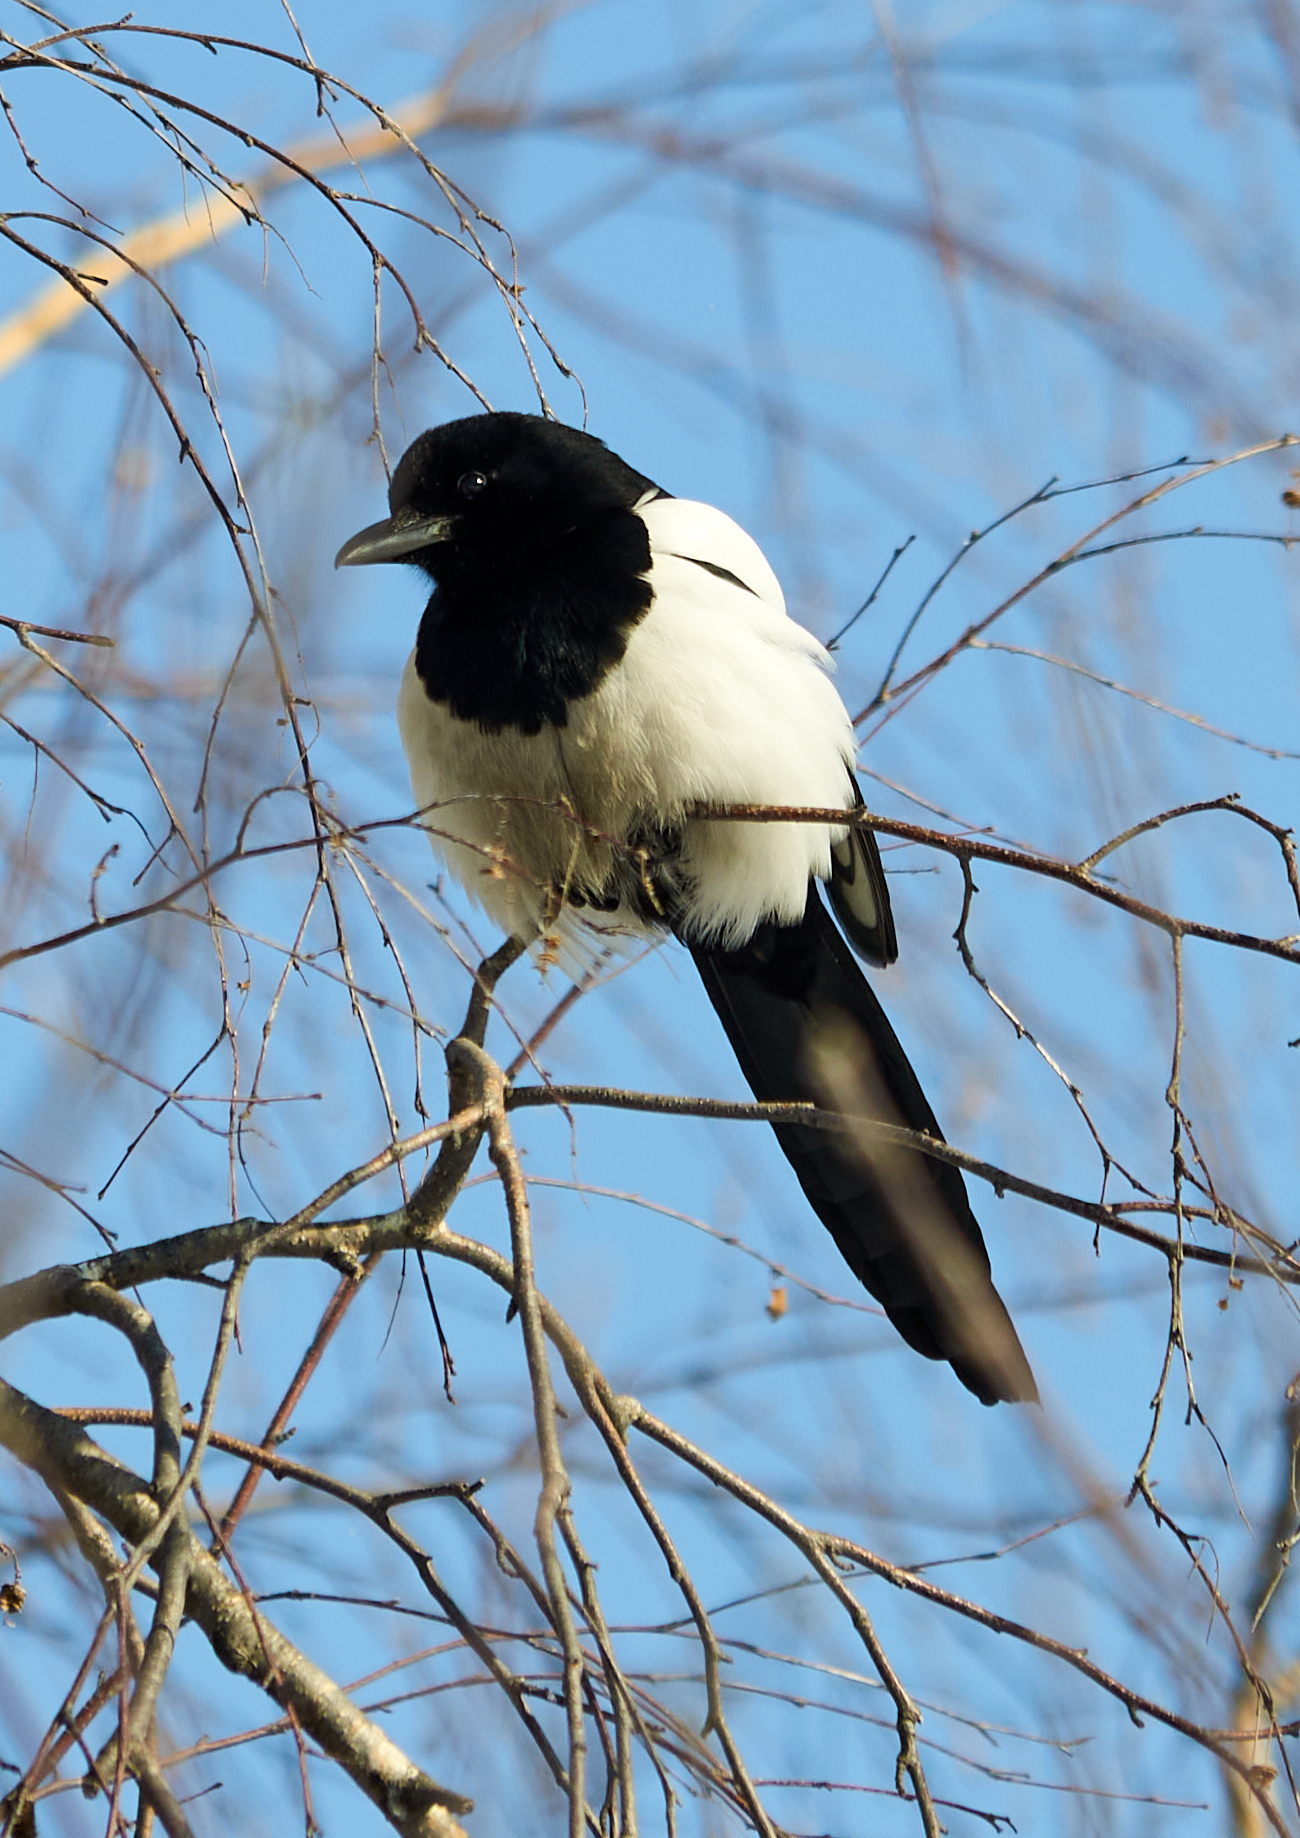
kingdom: Animalia
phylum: Chordata
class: Aves
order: Passeriformes
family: Corvidae
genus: Pica
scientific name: Pica pica
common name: Eurasian magpie
